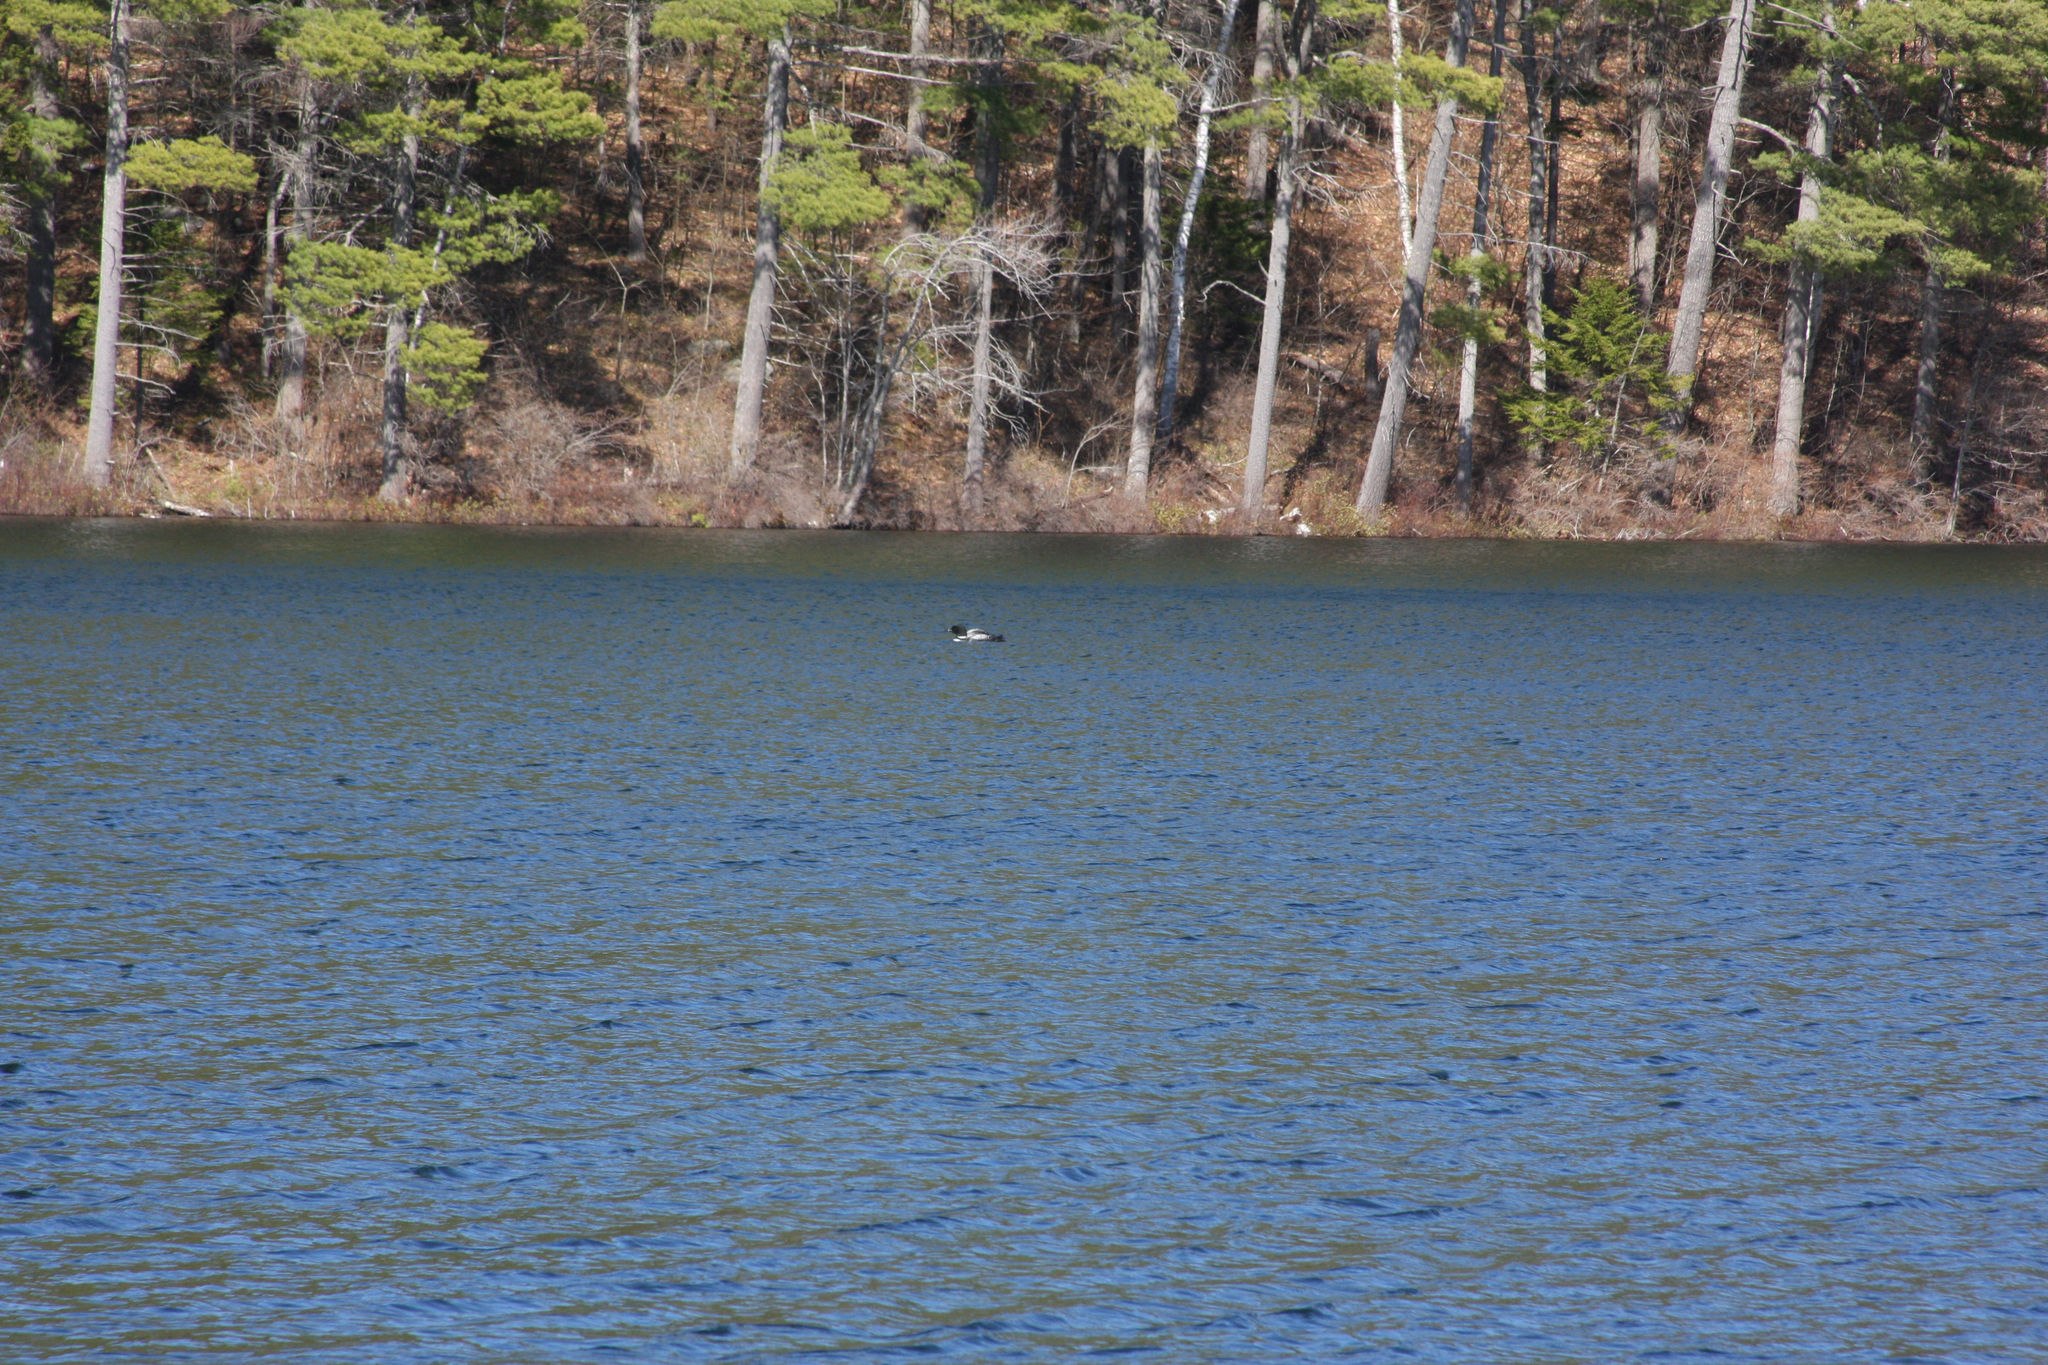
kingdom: Animalia
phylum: Chordata
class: Aves
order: Gaviiformes
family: Gaviidae
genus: Gavia
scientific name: Gavia immer
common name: Common loon
